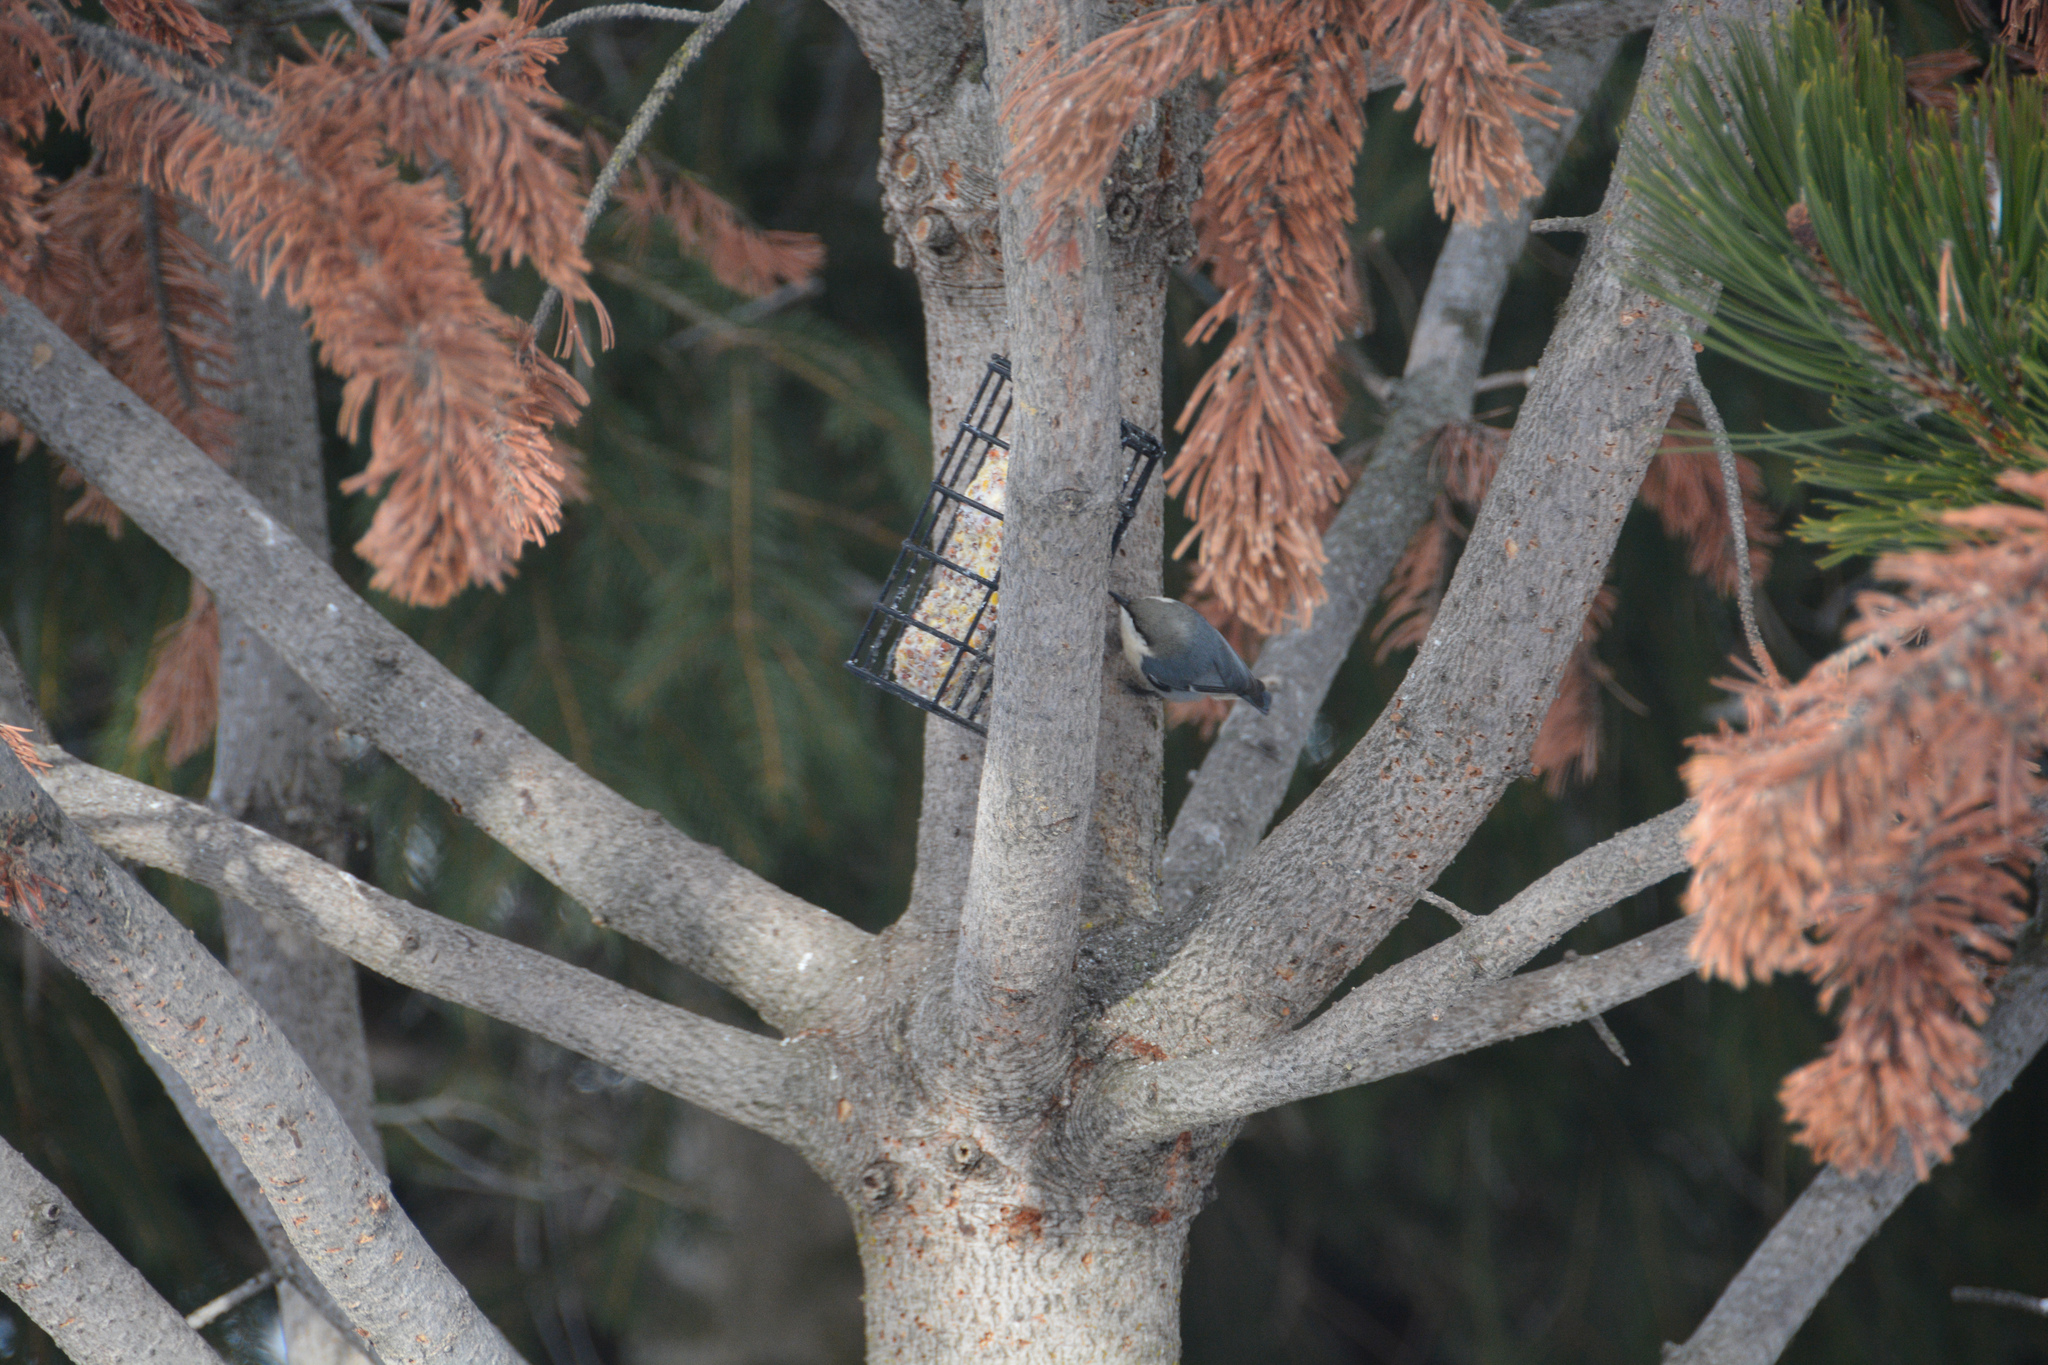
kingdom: Animalia
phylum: Chordata
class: Aves
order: Passeriformes
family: Sittidae
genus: Sitta
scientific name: Sitta pygmaea
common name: Pygmy nuthatch
